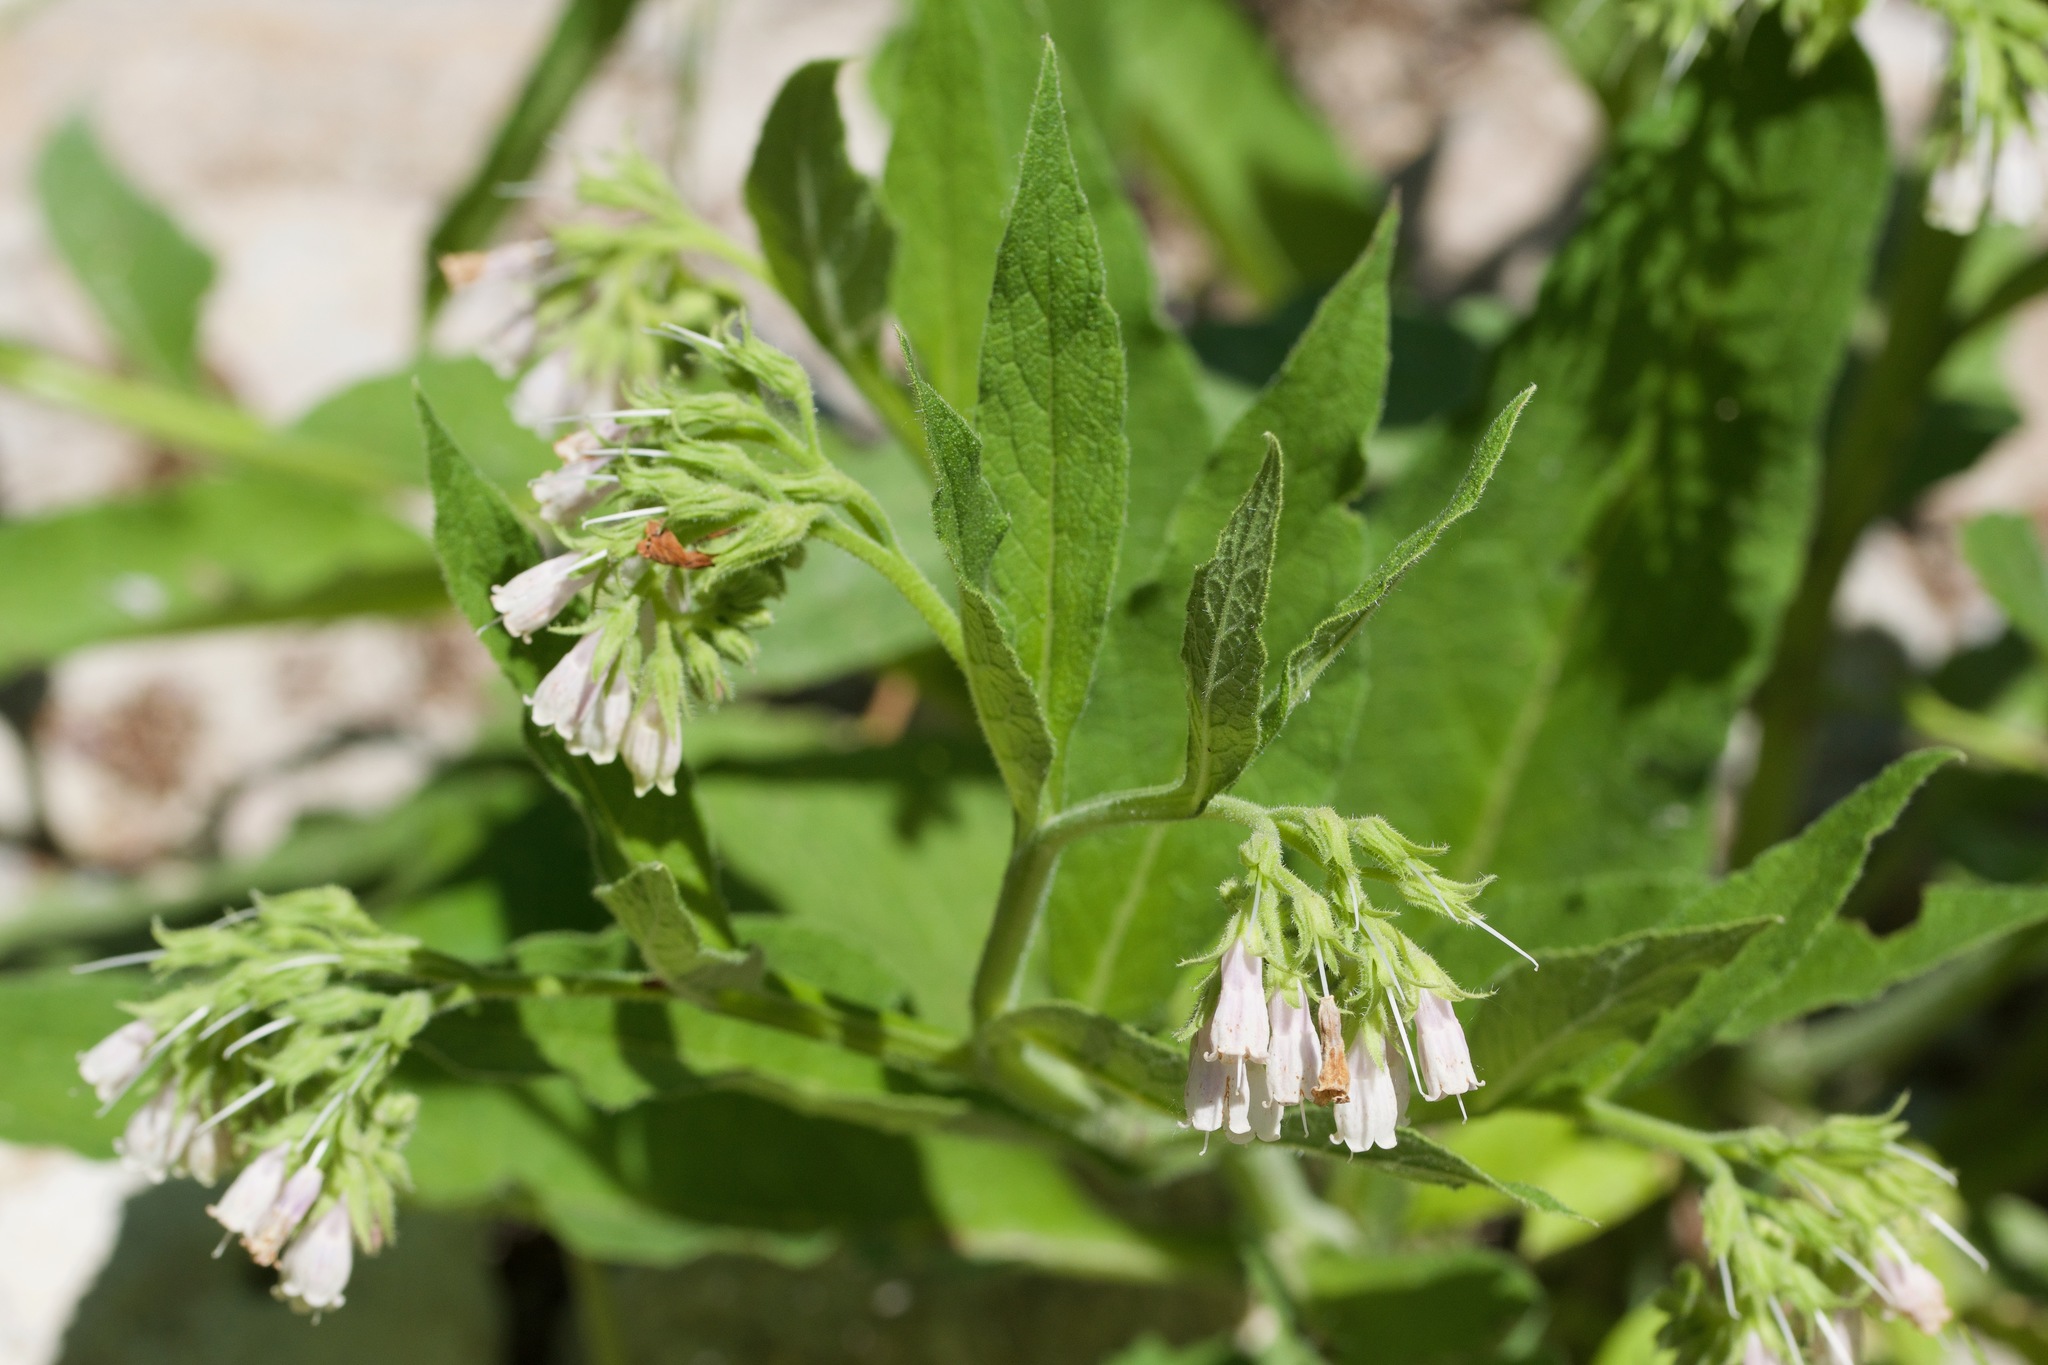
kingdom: Plantae
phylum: Tracheophyta
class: Magnoliopsida
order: Boraginales
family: Boraginaceae
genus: Symphytum
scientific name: Symphytum officinale
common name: Common comfrey
